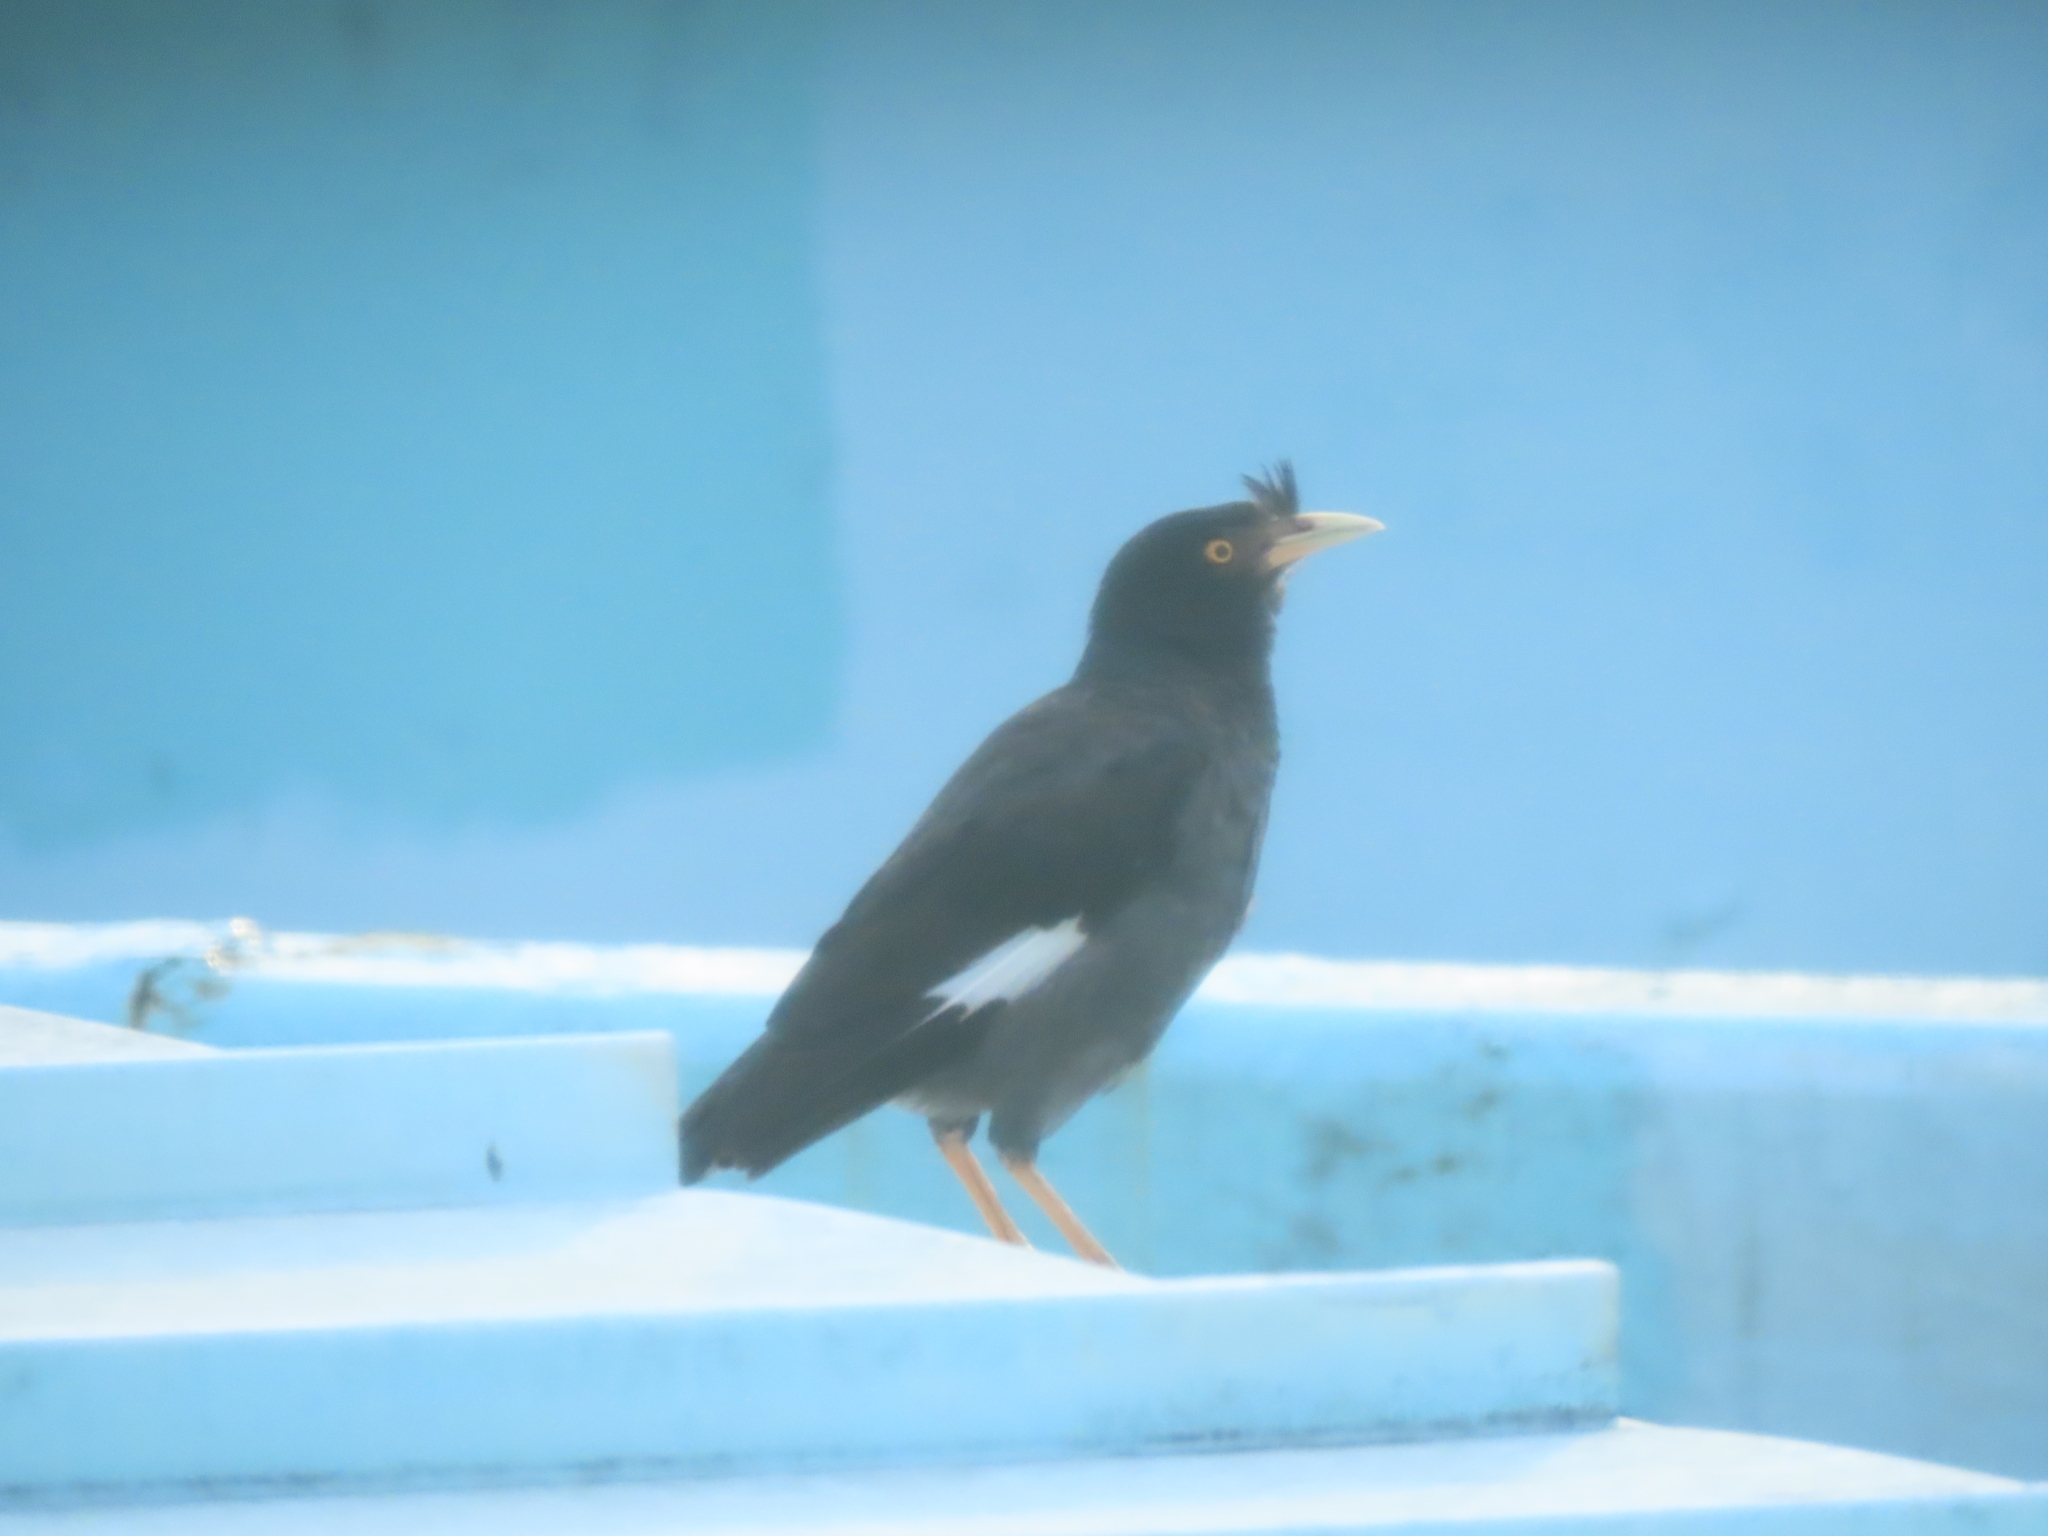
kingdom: Animalia
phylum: Chordata
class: Aves
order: Passeriformes
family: Sturnidae
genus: Acridotheres
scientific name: Acridotheres cristatellus
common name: Crested myna
